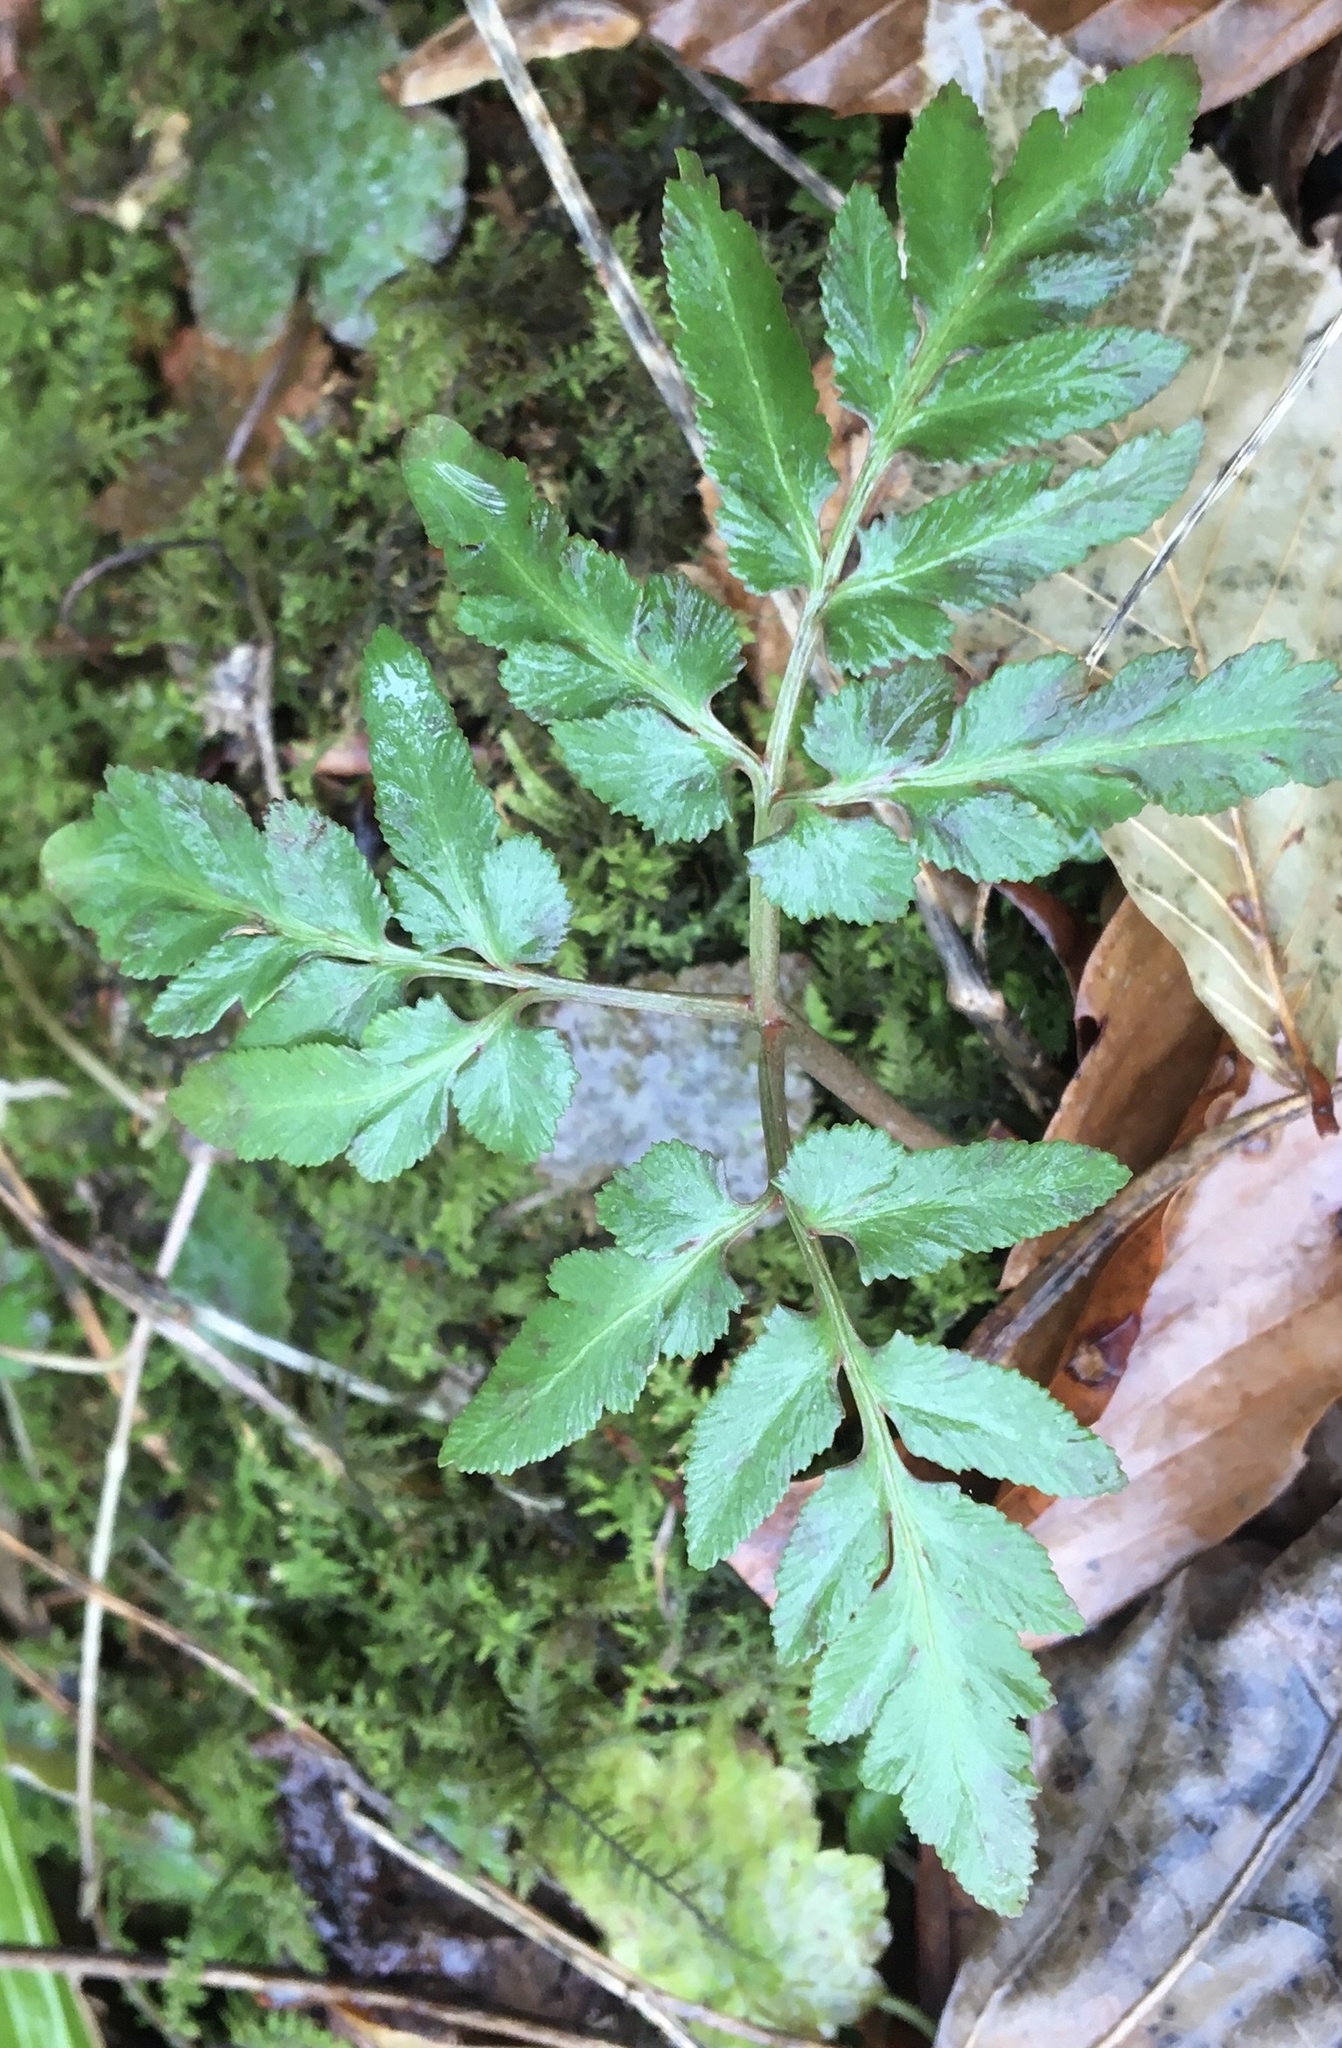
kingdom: Plantae
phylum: Tracheophyta
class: Polypodiopsida
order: Ophioglossales
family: Ophioglossaceae
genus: Sceptridium
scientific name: Sceptridium biternatum
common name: Sparse-lobed grapefern
